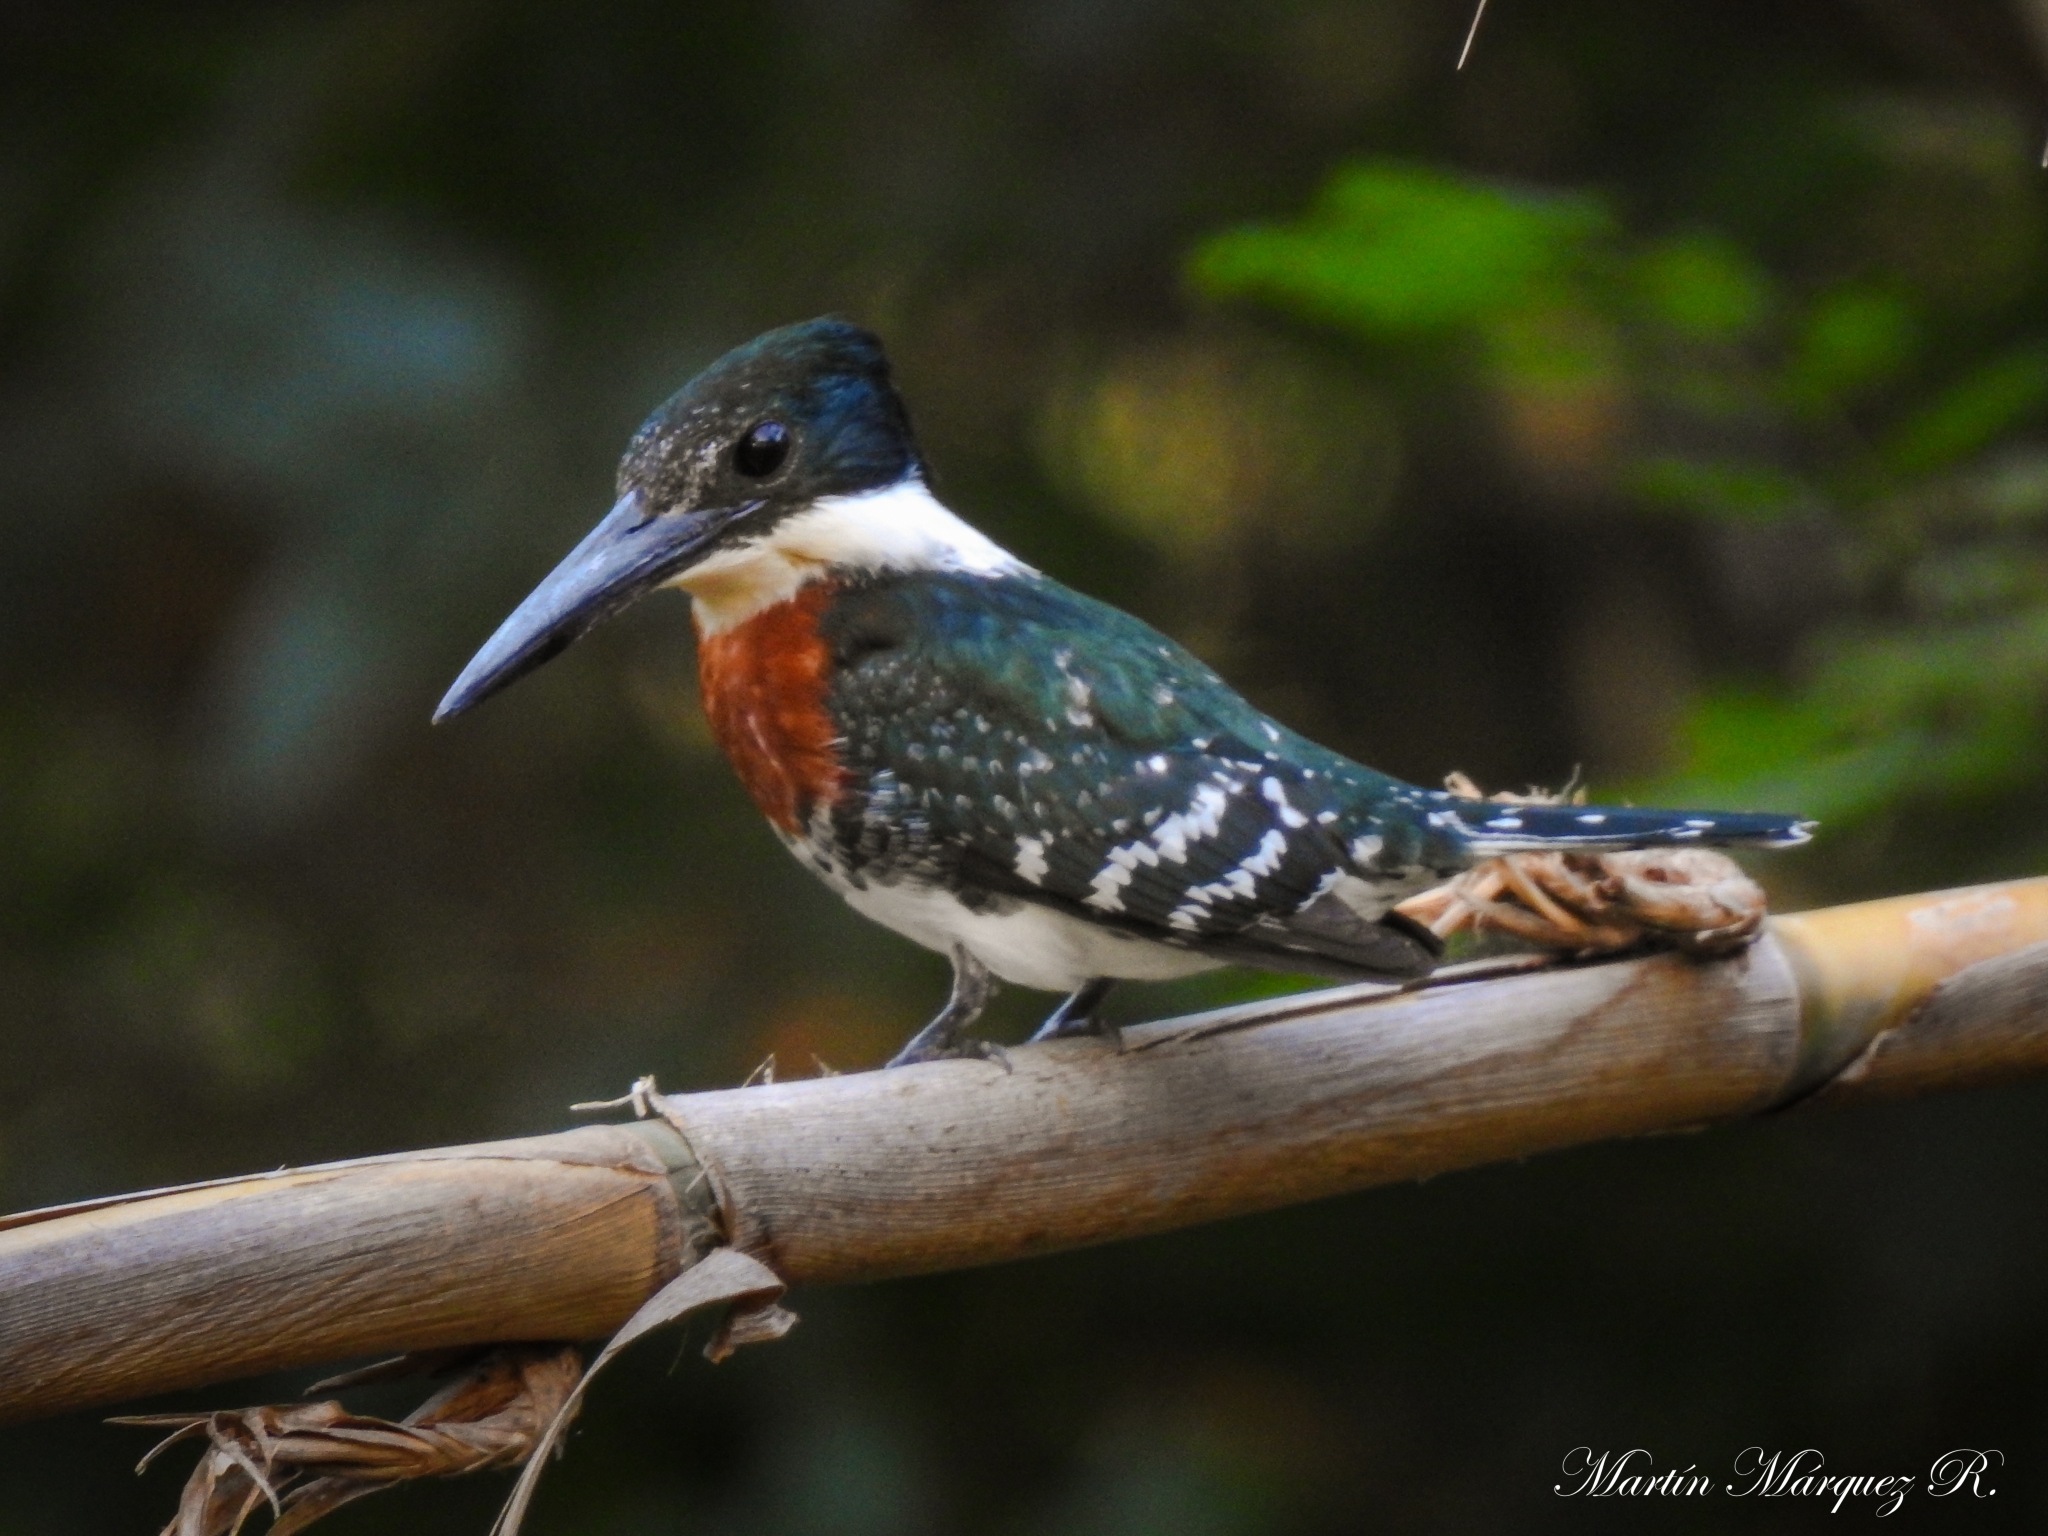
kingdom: Animalia
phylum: Chordata
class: Aves
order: Coraciiformes
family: Alcedinidae
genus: Chloroceryle
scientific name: Chloroceryle americana
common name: Green kingfisher
